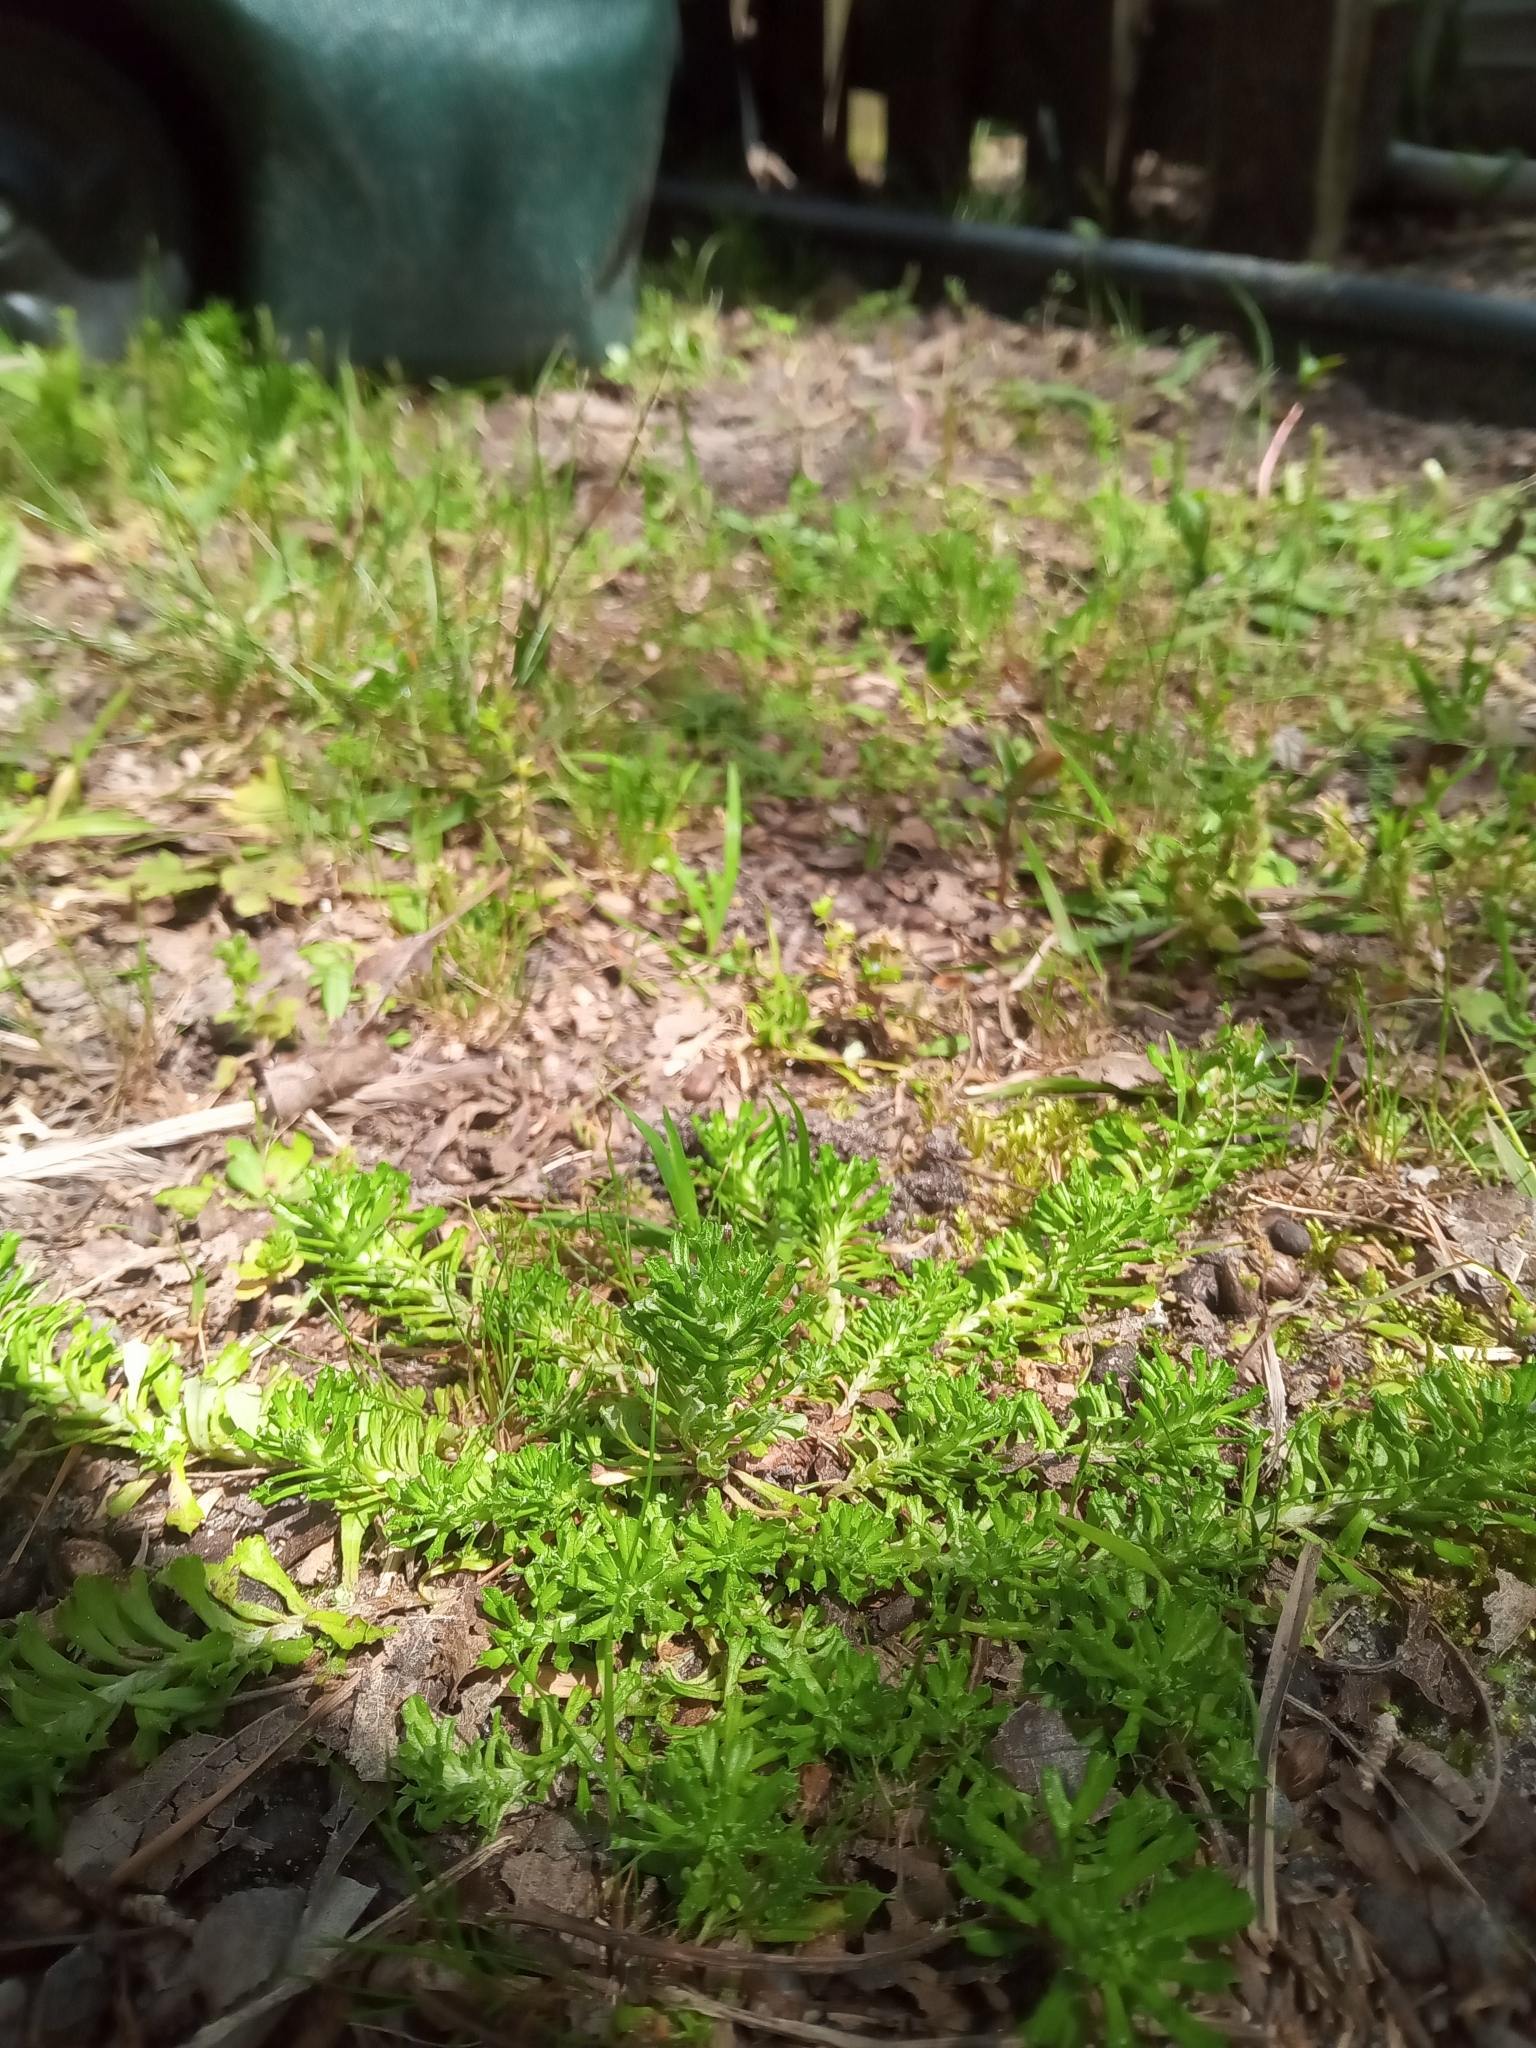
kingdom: Plantae
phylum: Tracheophyta
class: Magnoliopsida
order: Asterales
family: Asteraceae
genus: Facelis
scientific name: Facelis retusa
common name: Annual trampweed
